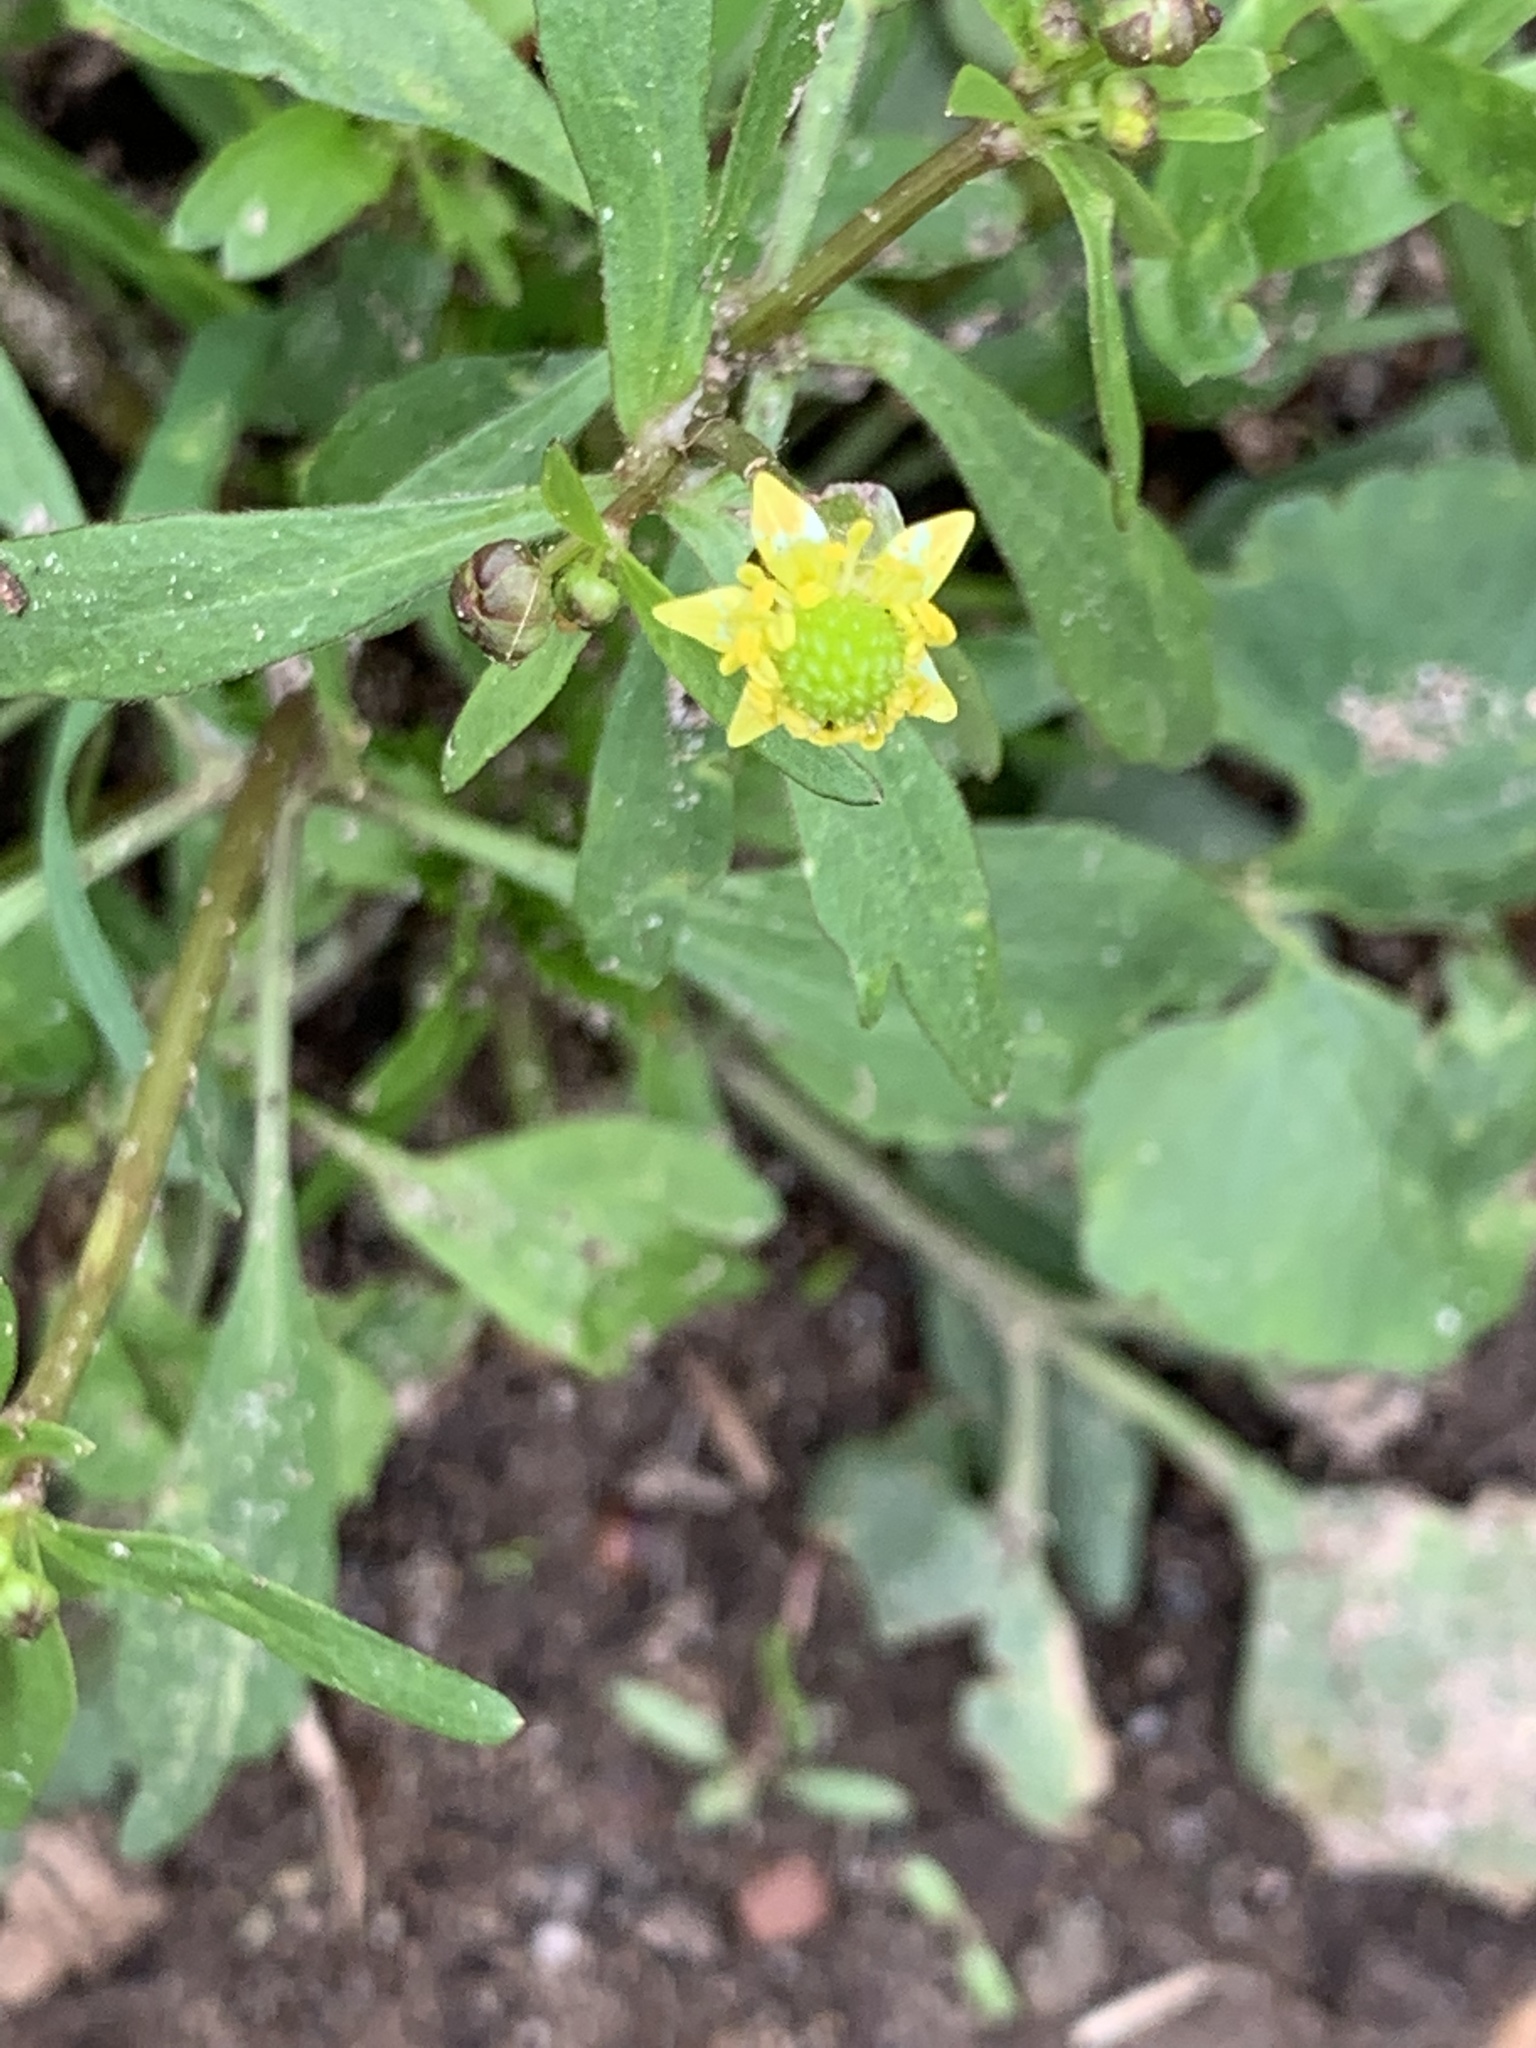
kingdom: Plantae
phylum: Tracheophyta
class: Magnoliopsida
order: Ranunculales
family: Ranunculaceae
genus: Ranunculus
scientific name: Ranunculus abortivus
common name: Early wood buttercup
